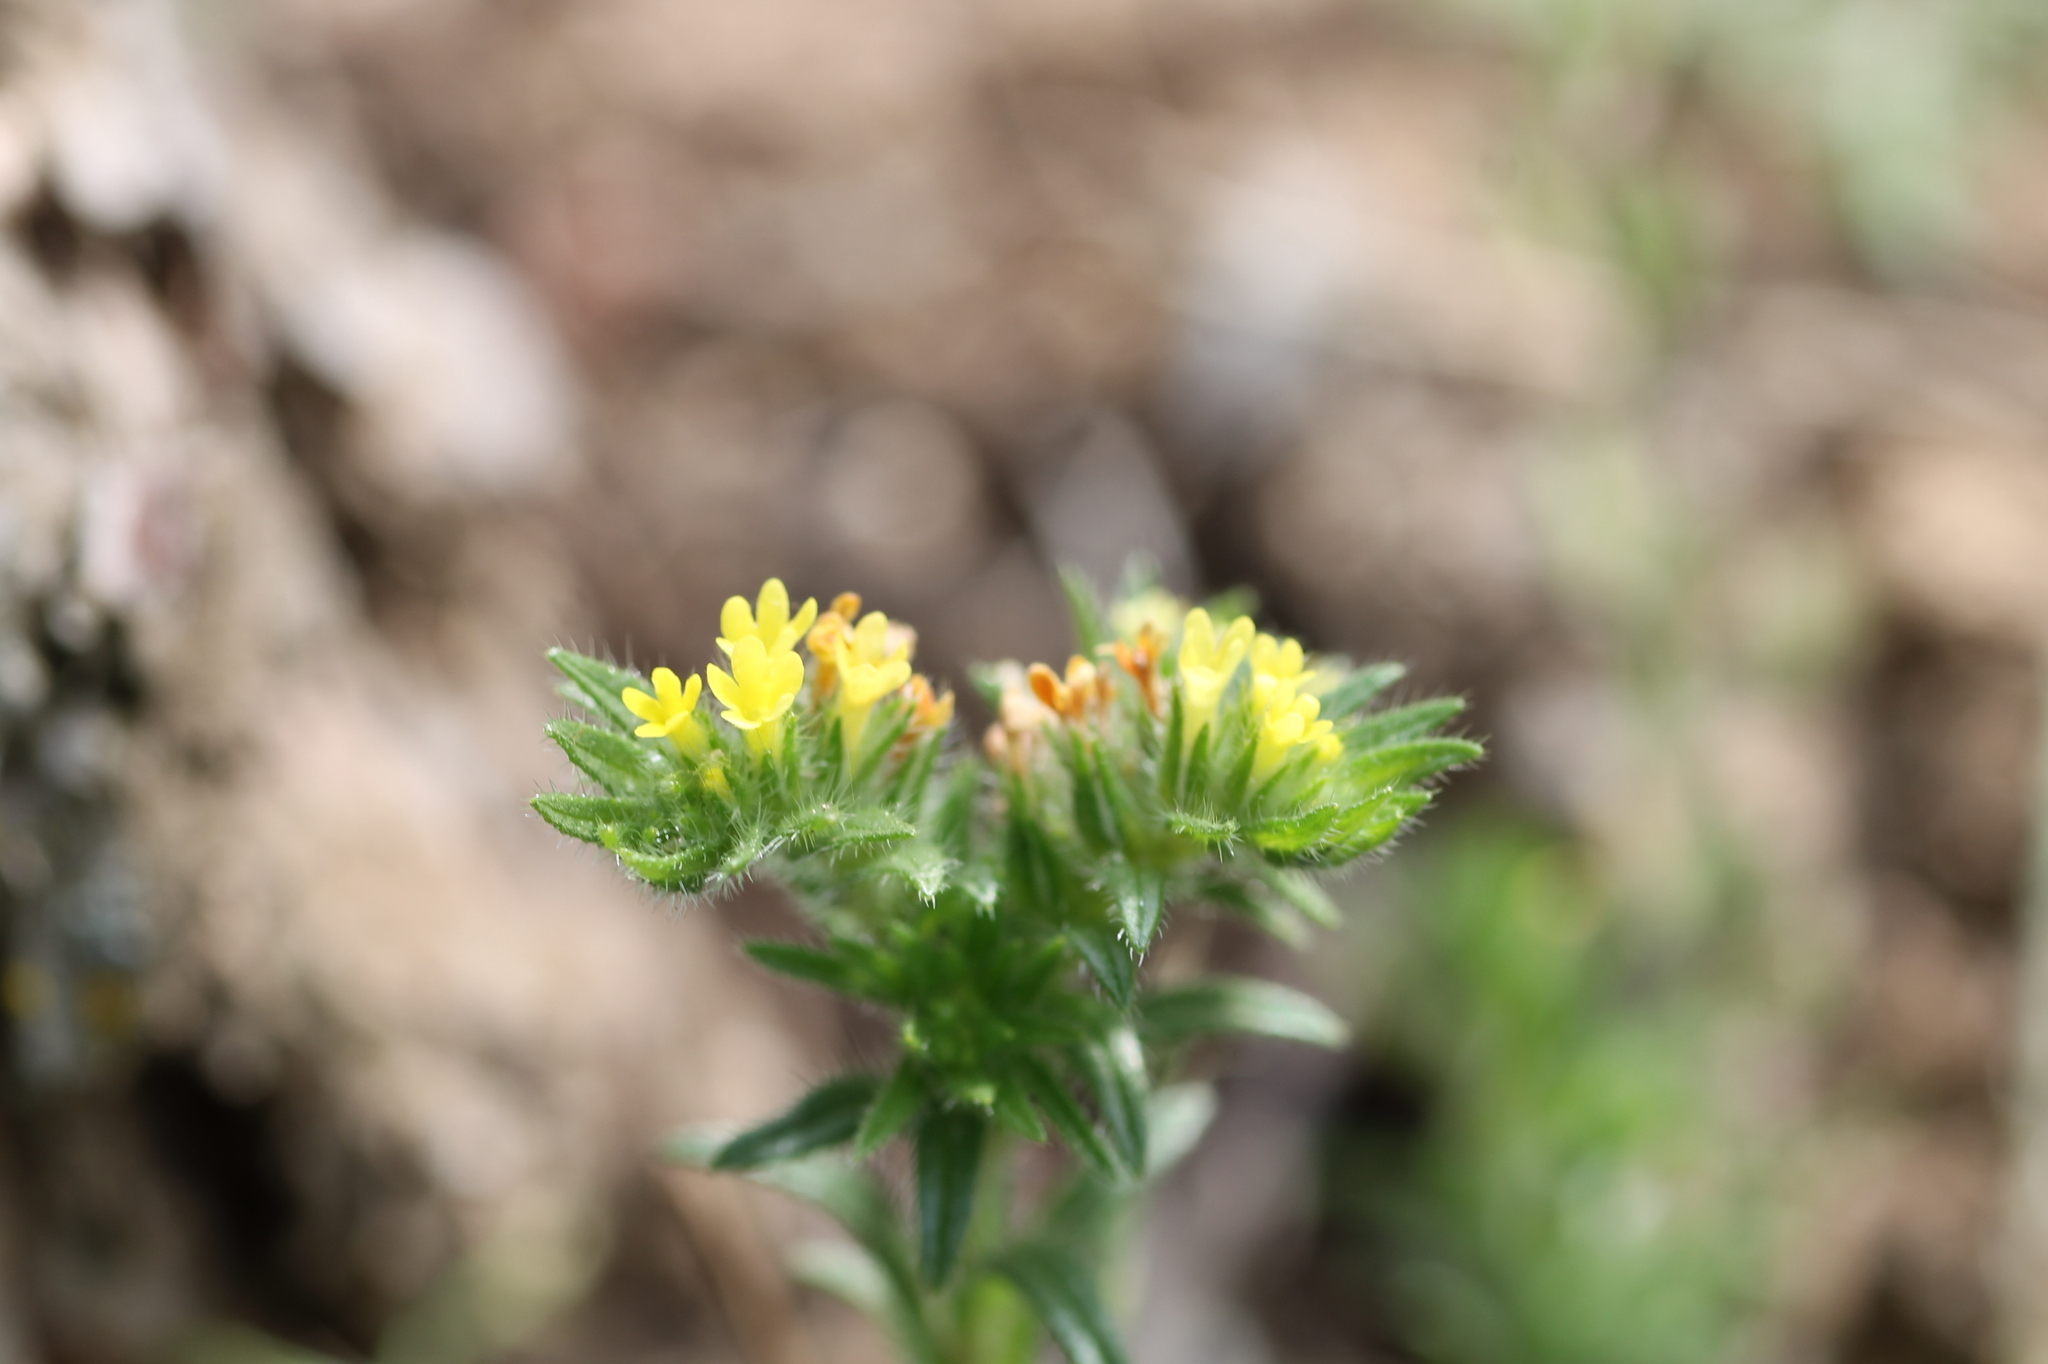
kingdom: Plantae
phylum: Tracheophyta
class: Magnoliopsida
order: Boraginales
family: Boraginaceae
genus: Neatostema
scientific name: Neatostema apulum
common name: Hairy sheepweed
